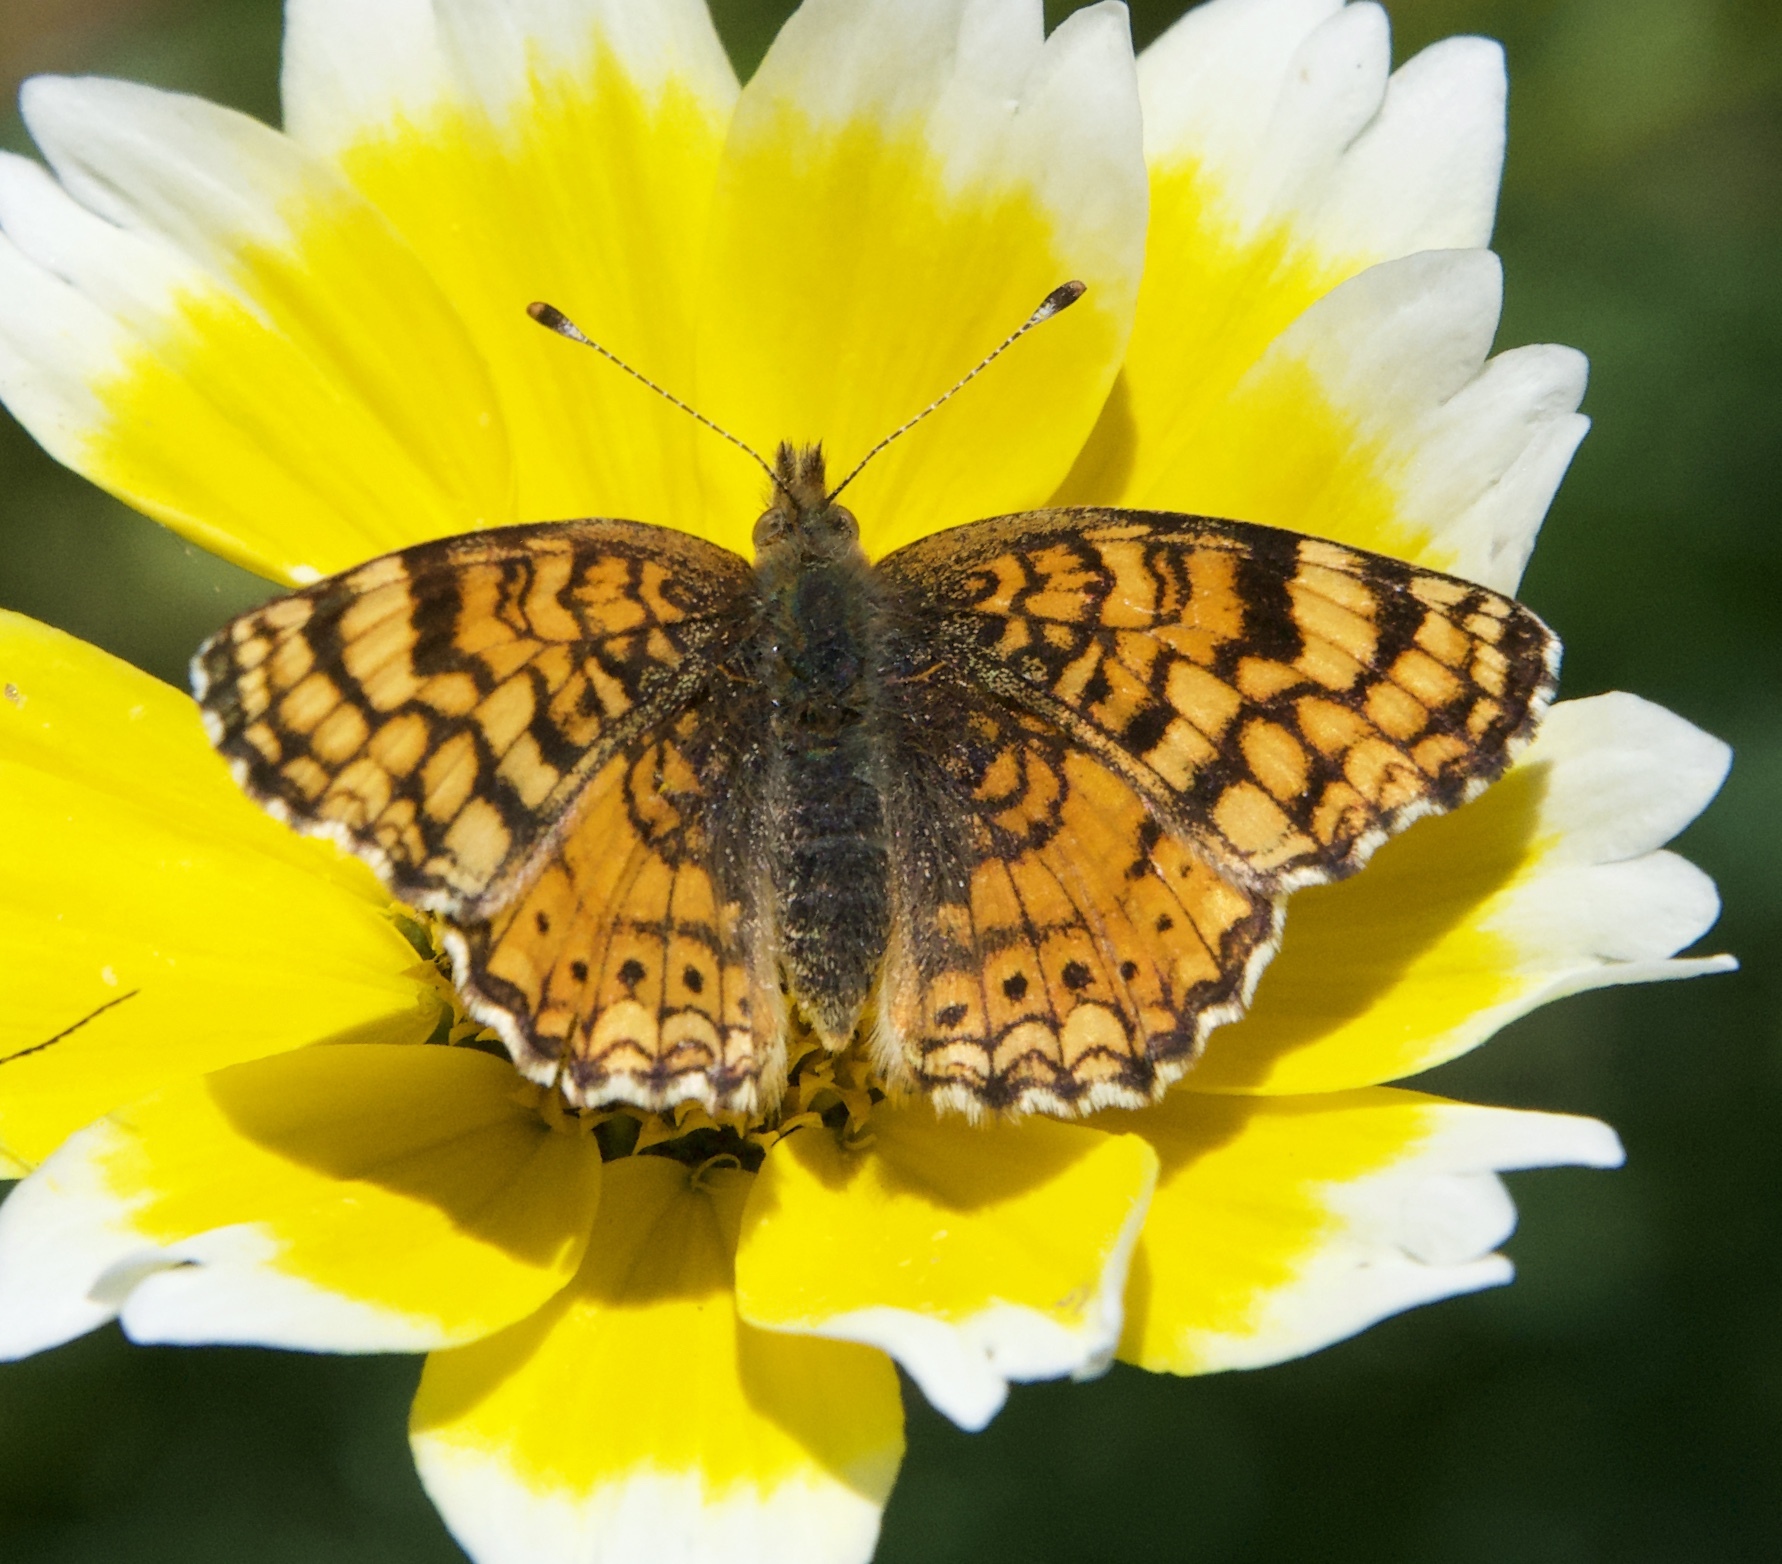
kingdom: Animalia
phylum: Arthropoda
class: Insecta
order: Lepidoptera
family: Nymphalidae
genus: Eresia
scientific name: Eresia aveyrona
